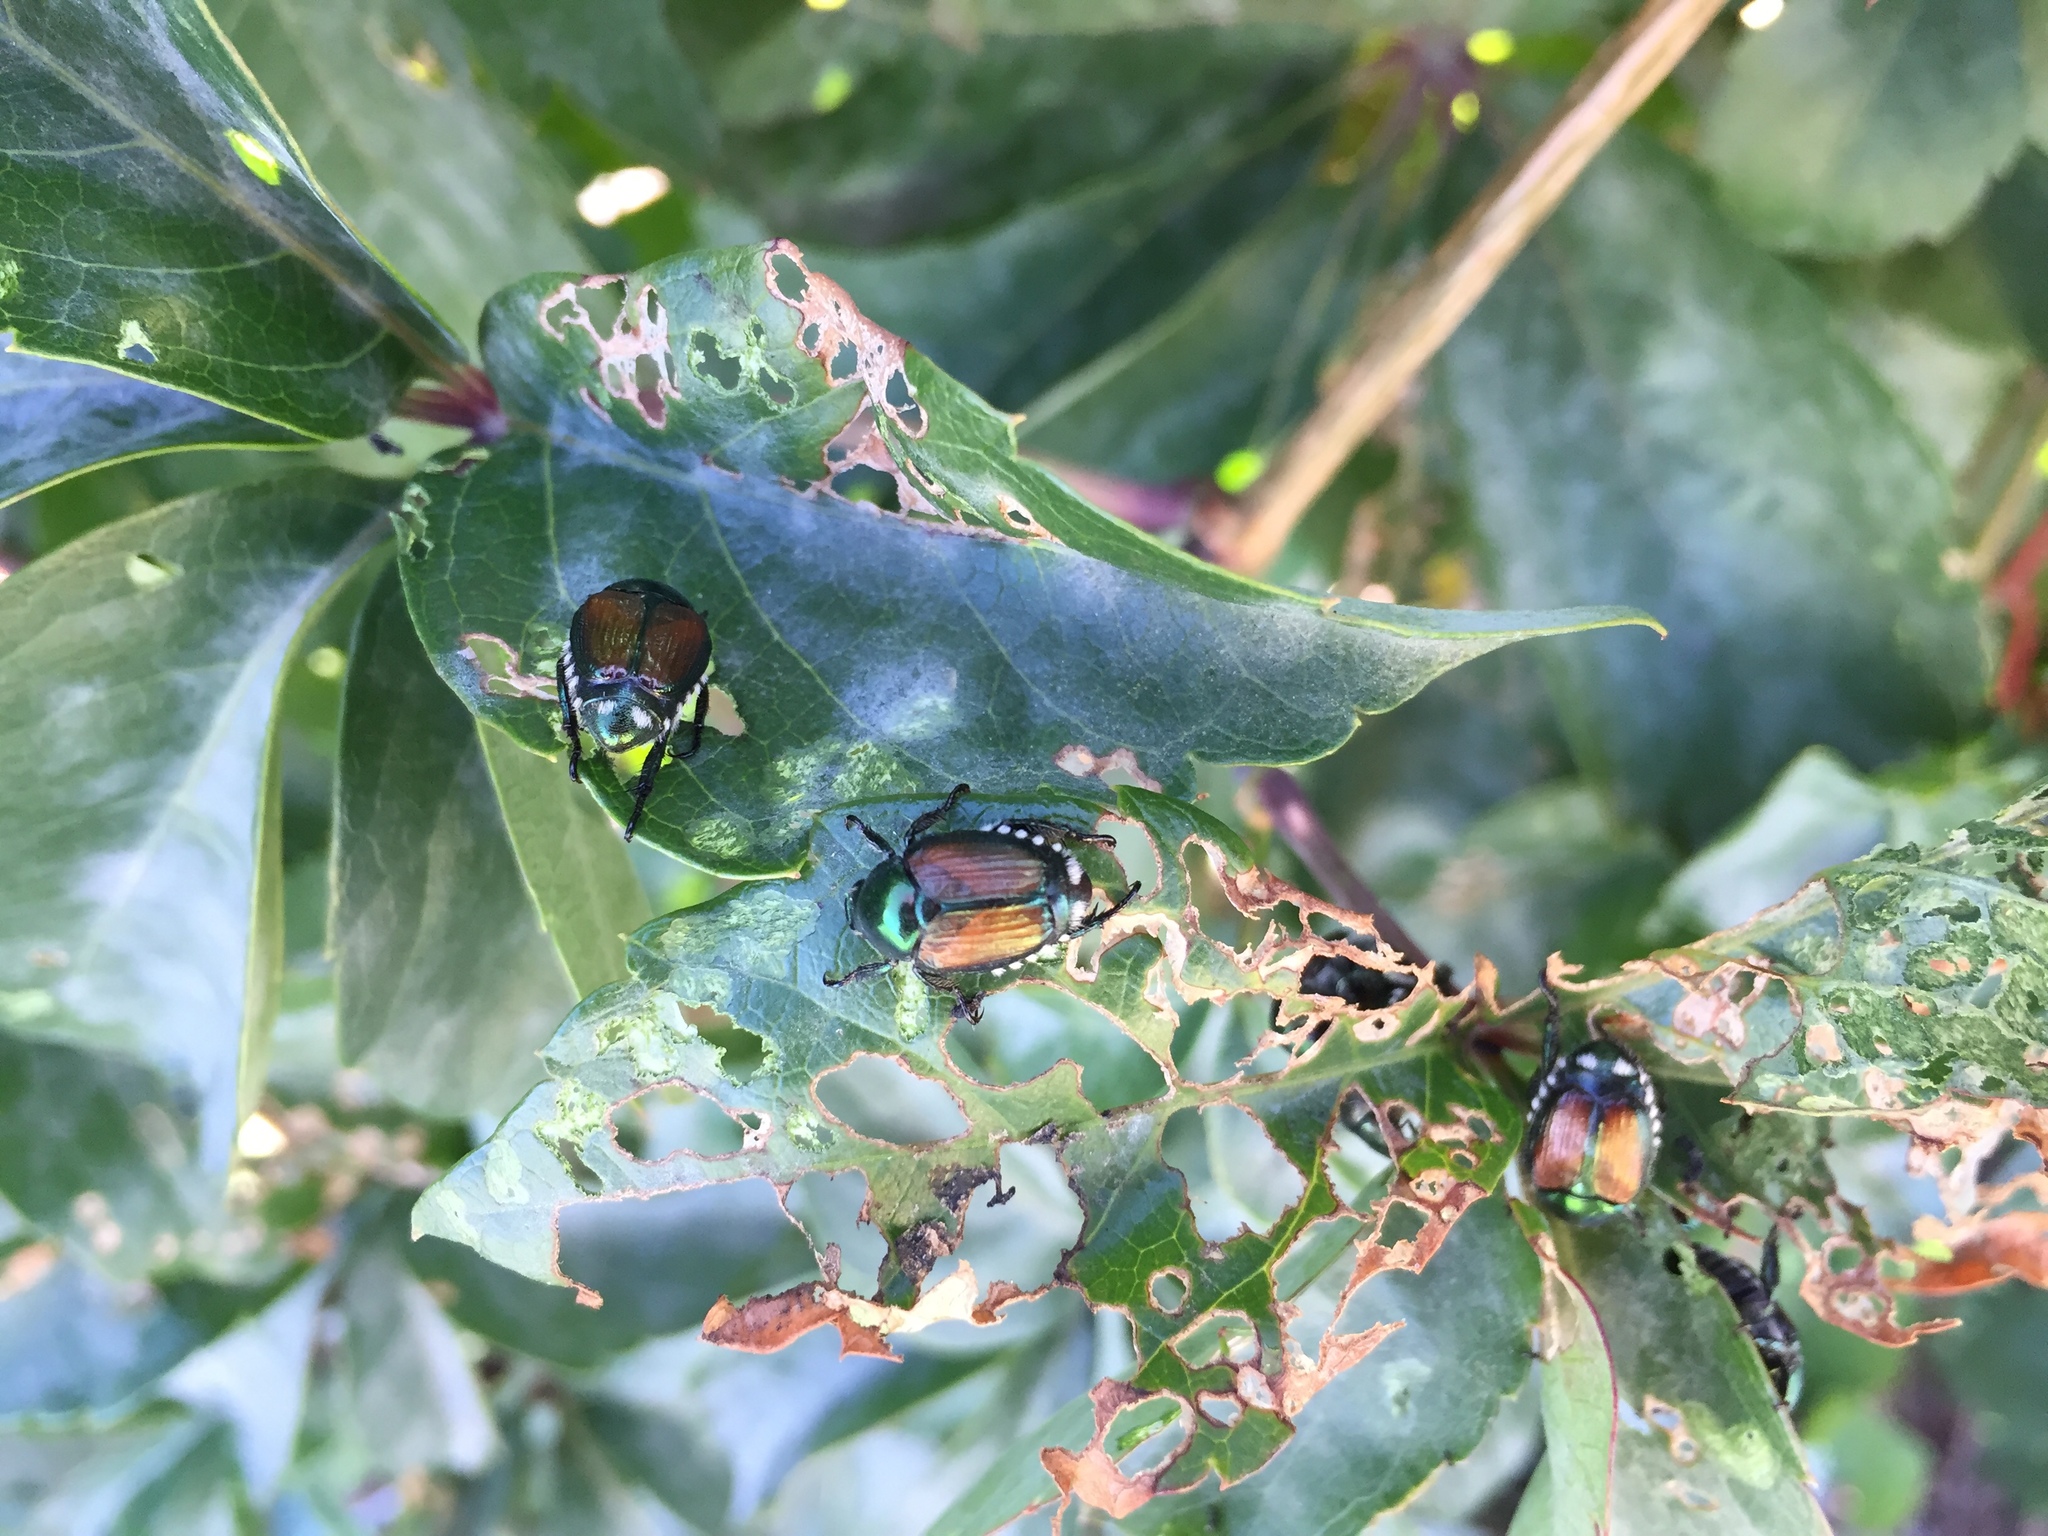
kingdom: Animalia
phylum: Arthropoda
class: Insecta
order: Coleoptera
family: Scarabaeidae
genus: Popillia
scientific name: Popillia japonica
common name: Japanese beetle
